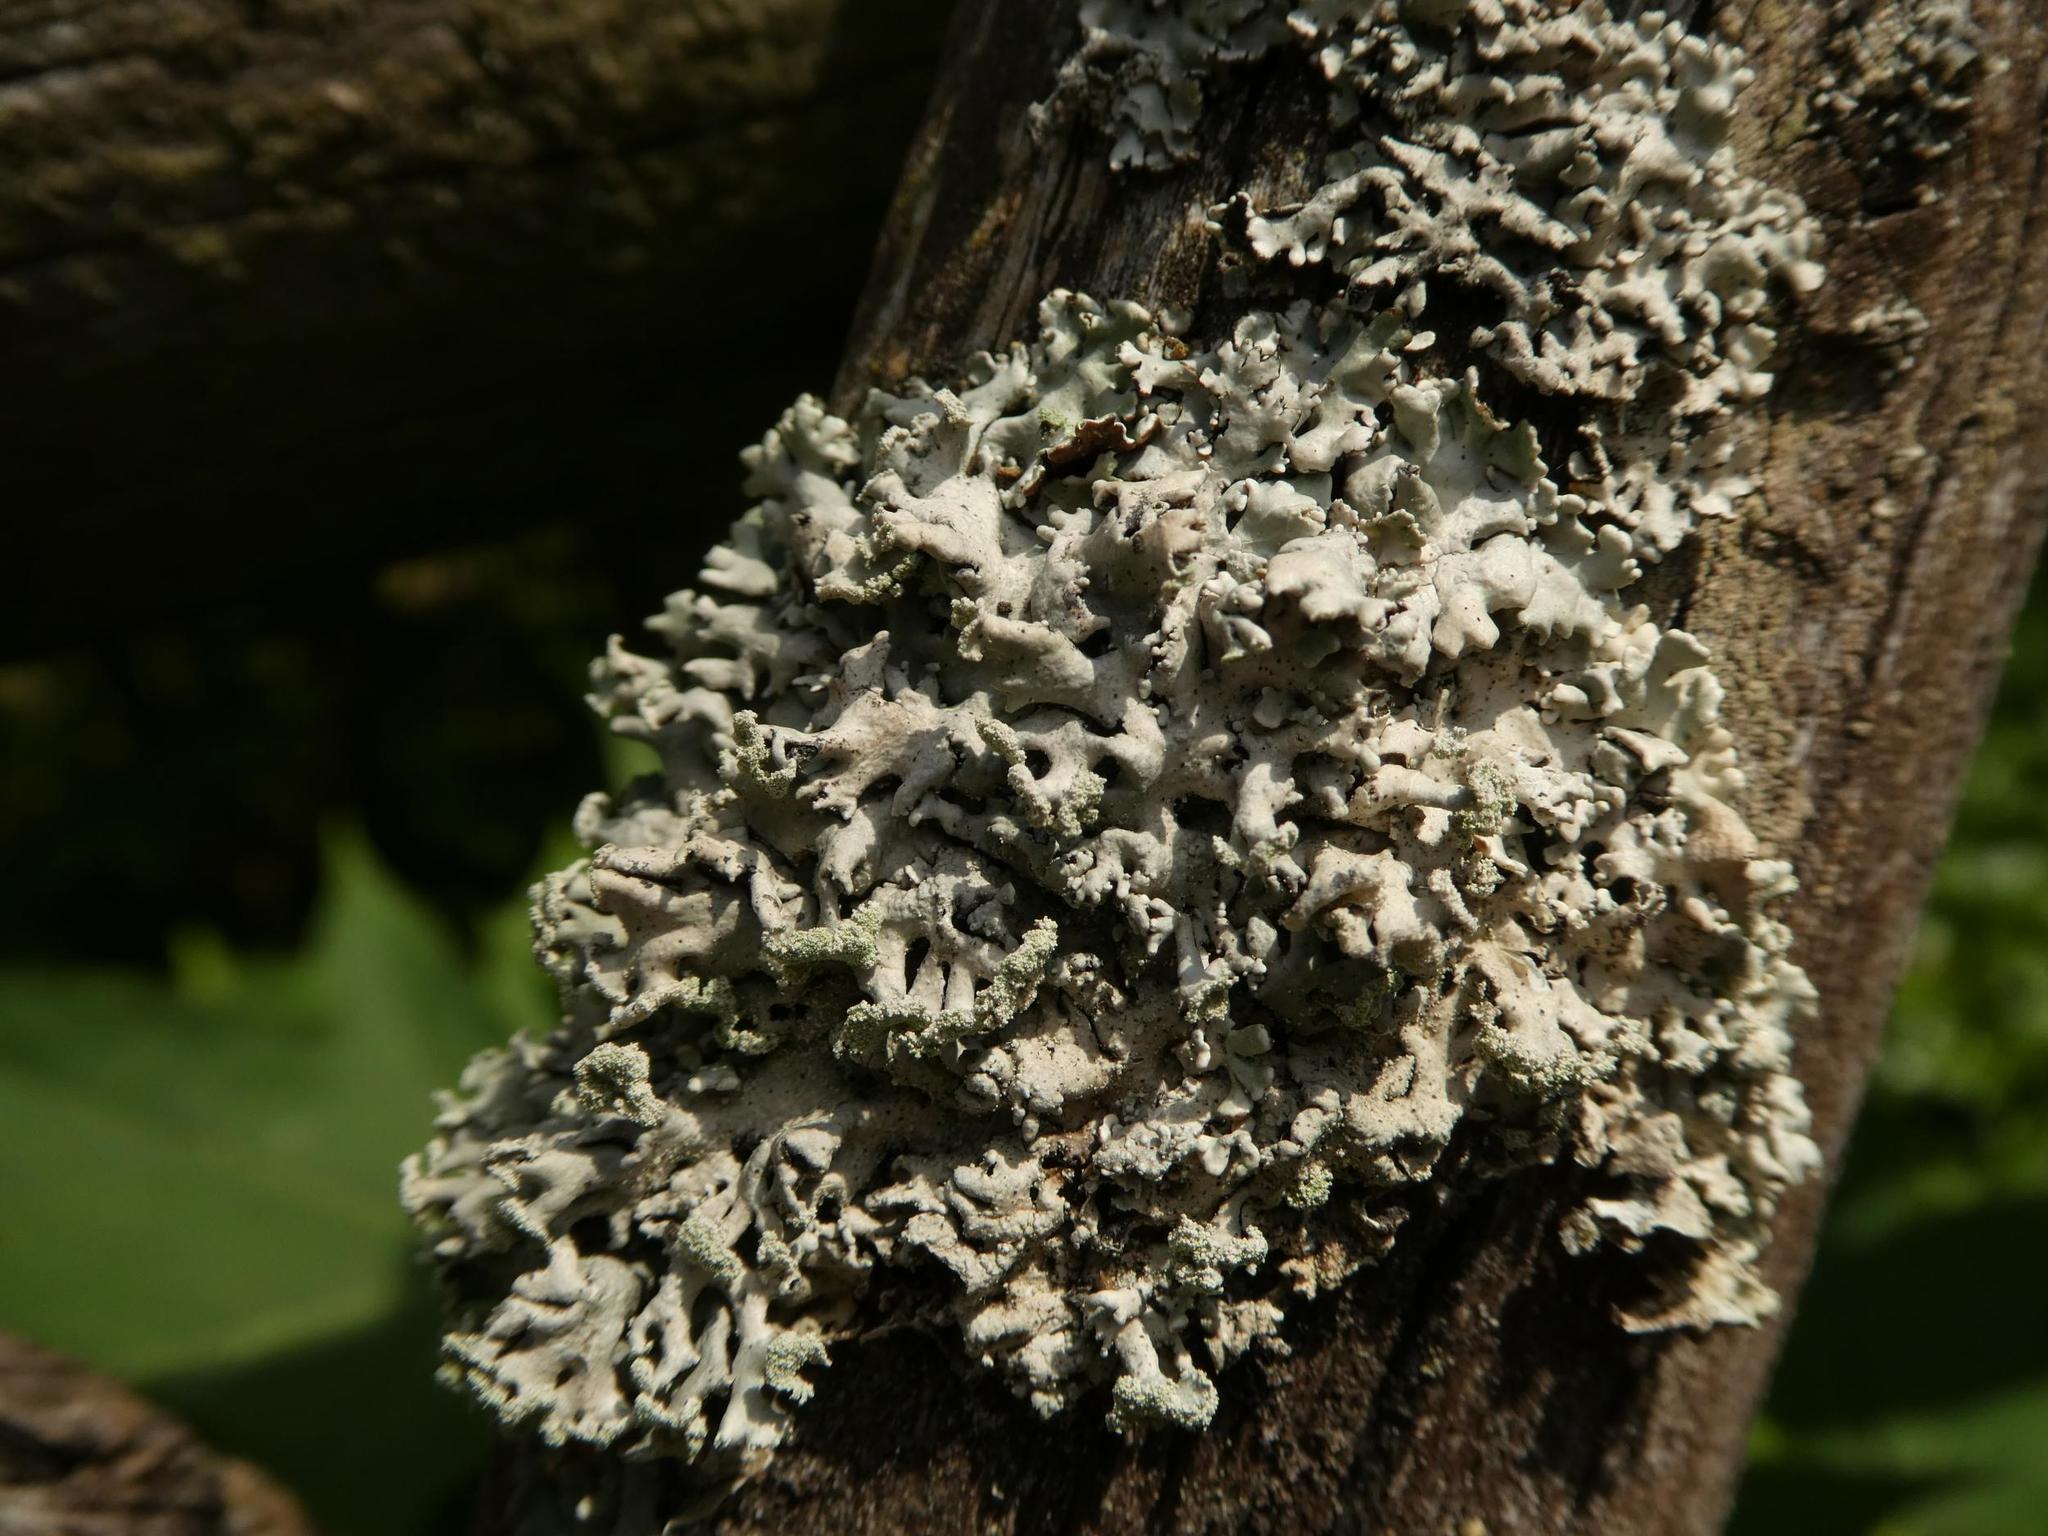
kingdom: Fungi
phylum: Ascomycota
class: Lecanoromycetes
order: Lecanorales
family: Parmeliaceae
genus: Hypogymnia
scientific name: Hypogymnia physodes
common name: Dark crottle
